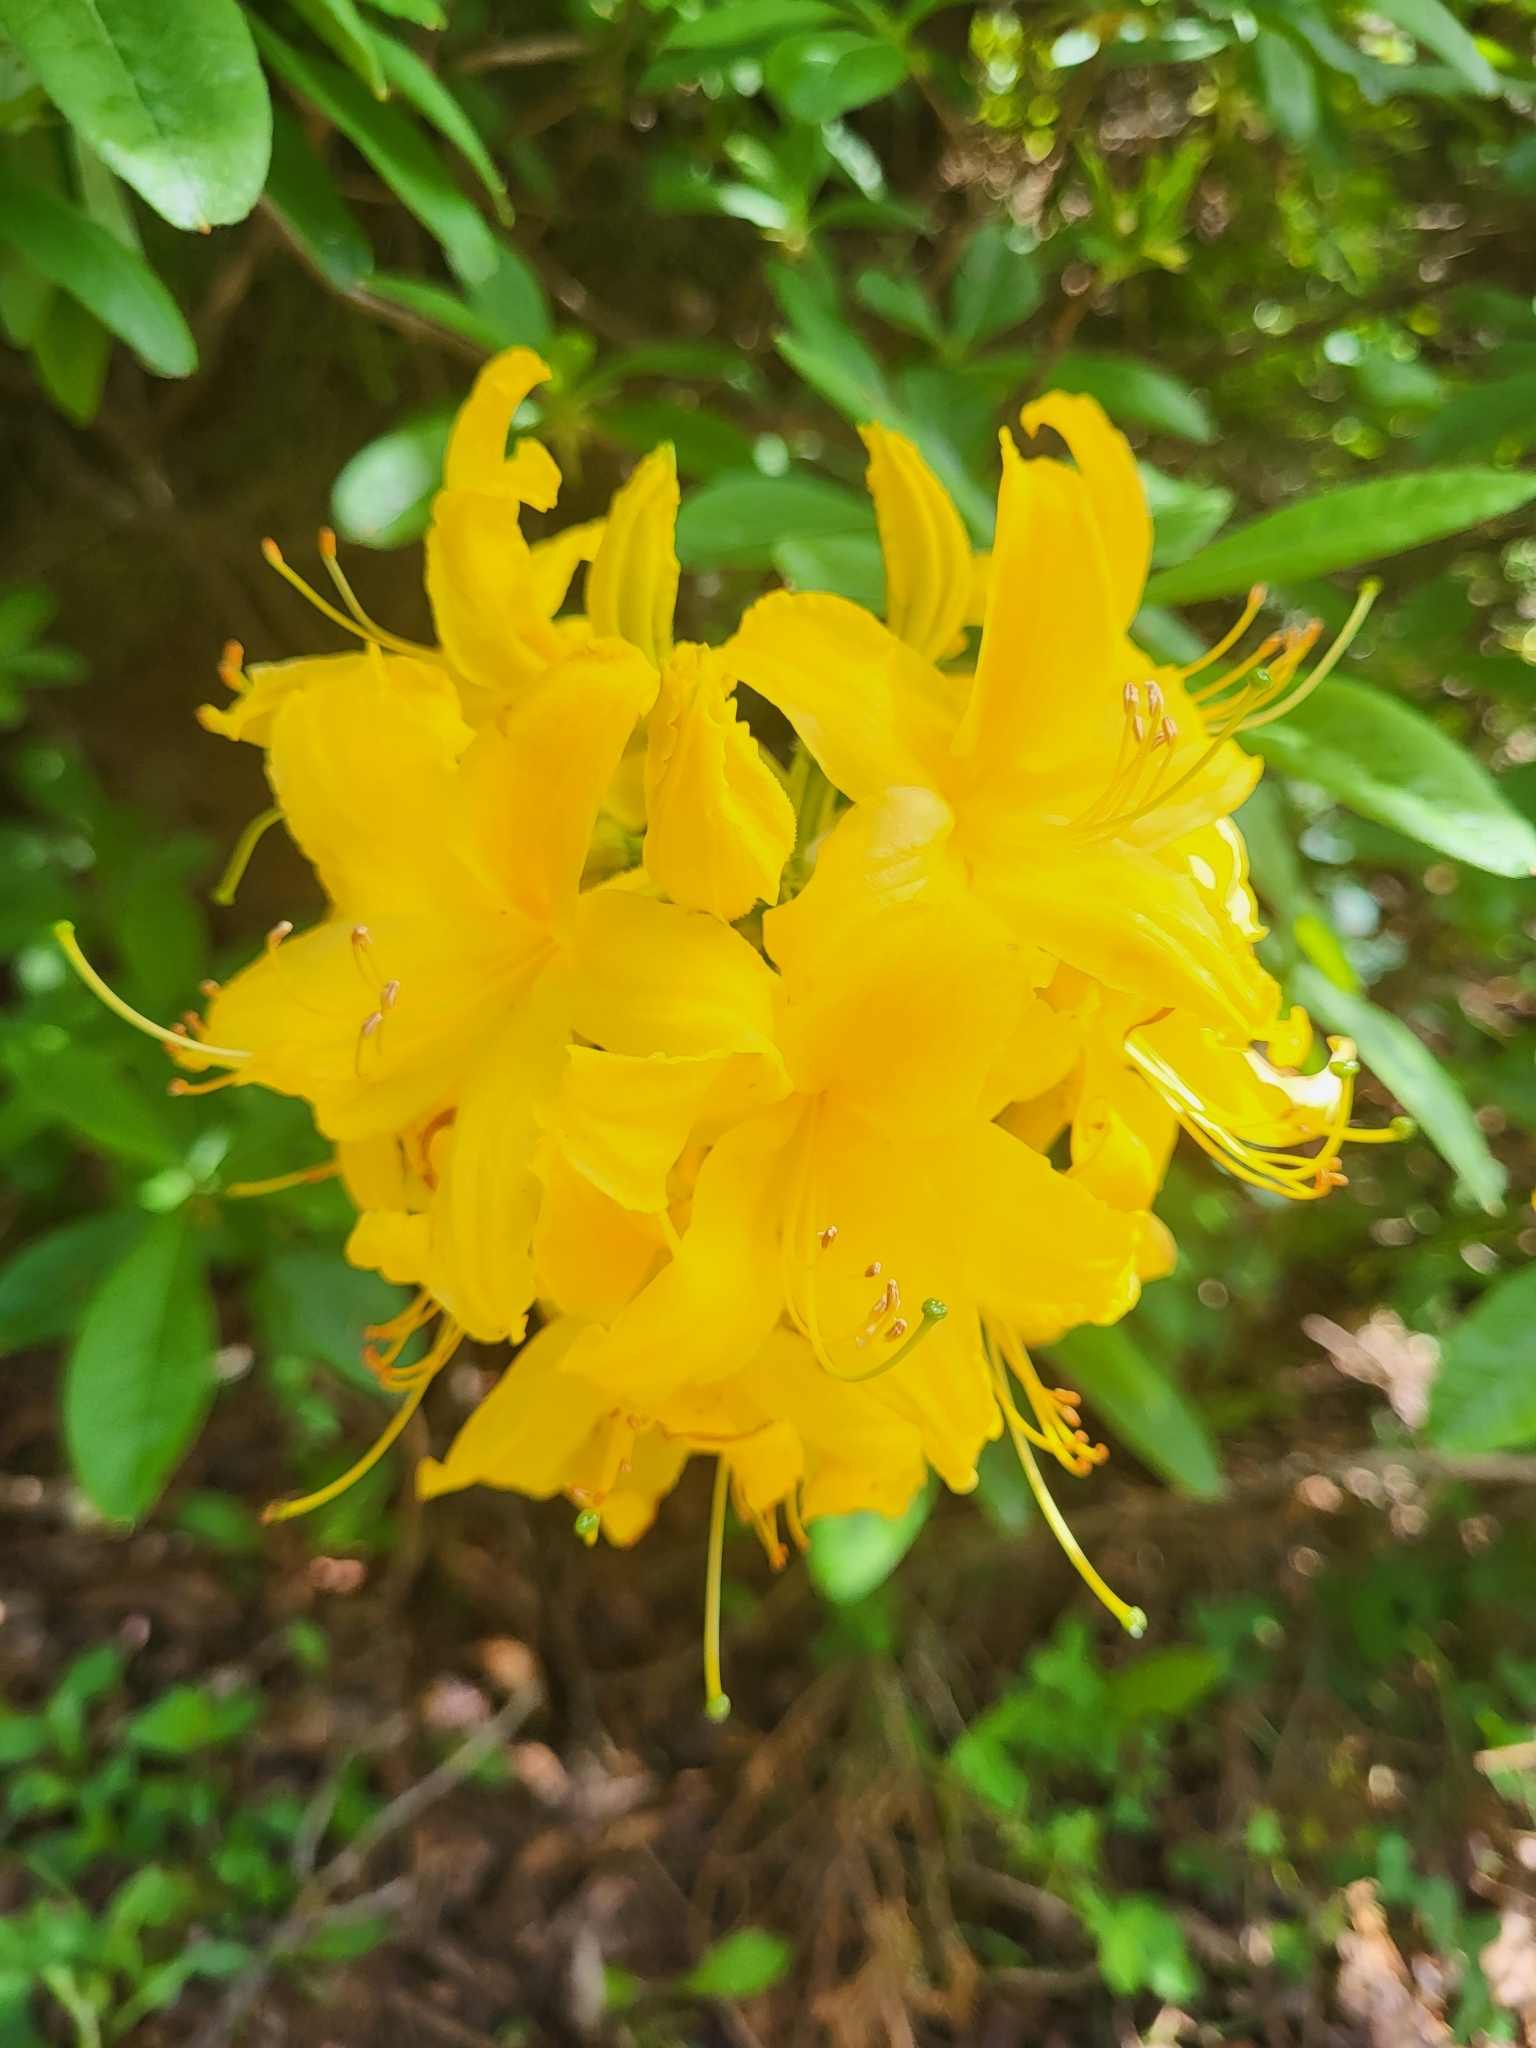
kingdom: Plantae
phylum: Tracheophyta
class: Magnoliopsida
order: Ericales
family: Ericaceae
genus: Rhododendron
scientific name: Rhododendron luteum
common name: Yellow azalea
